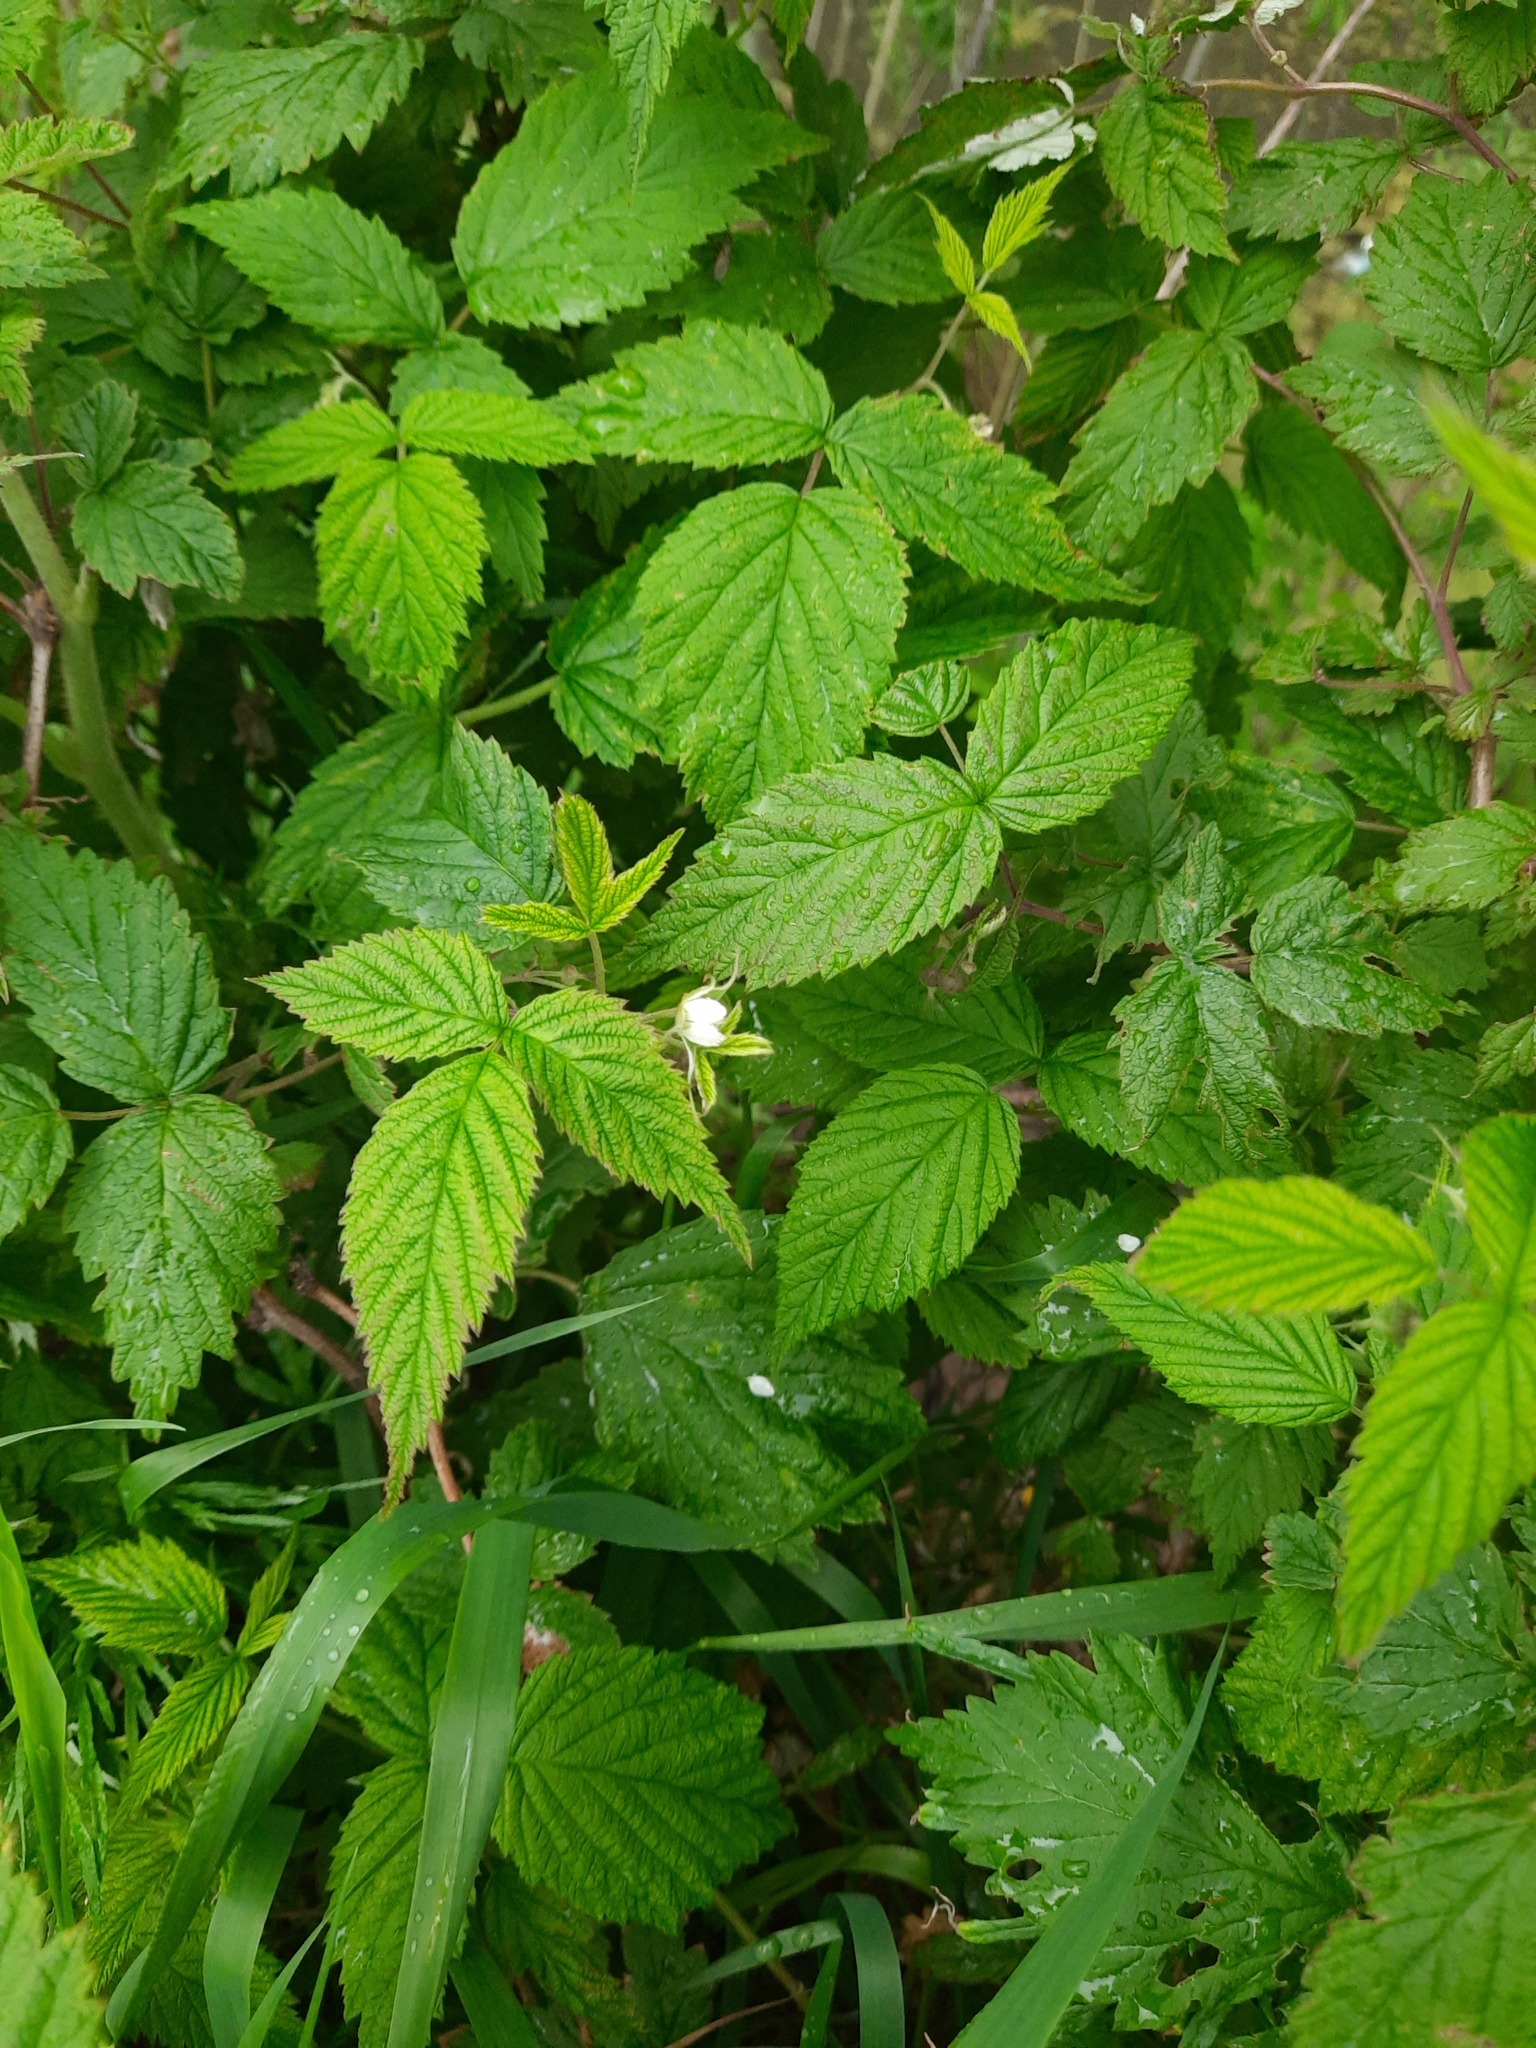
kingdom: Plantae
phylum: Tracheophyta
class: Magnoliopsida
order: Rosales
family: Rosaceae
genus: Rubus
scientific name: Rubus idaeus
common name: Raspberry
